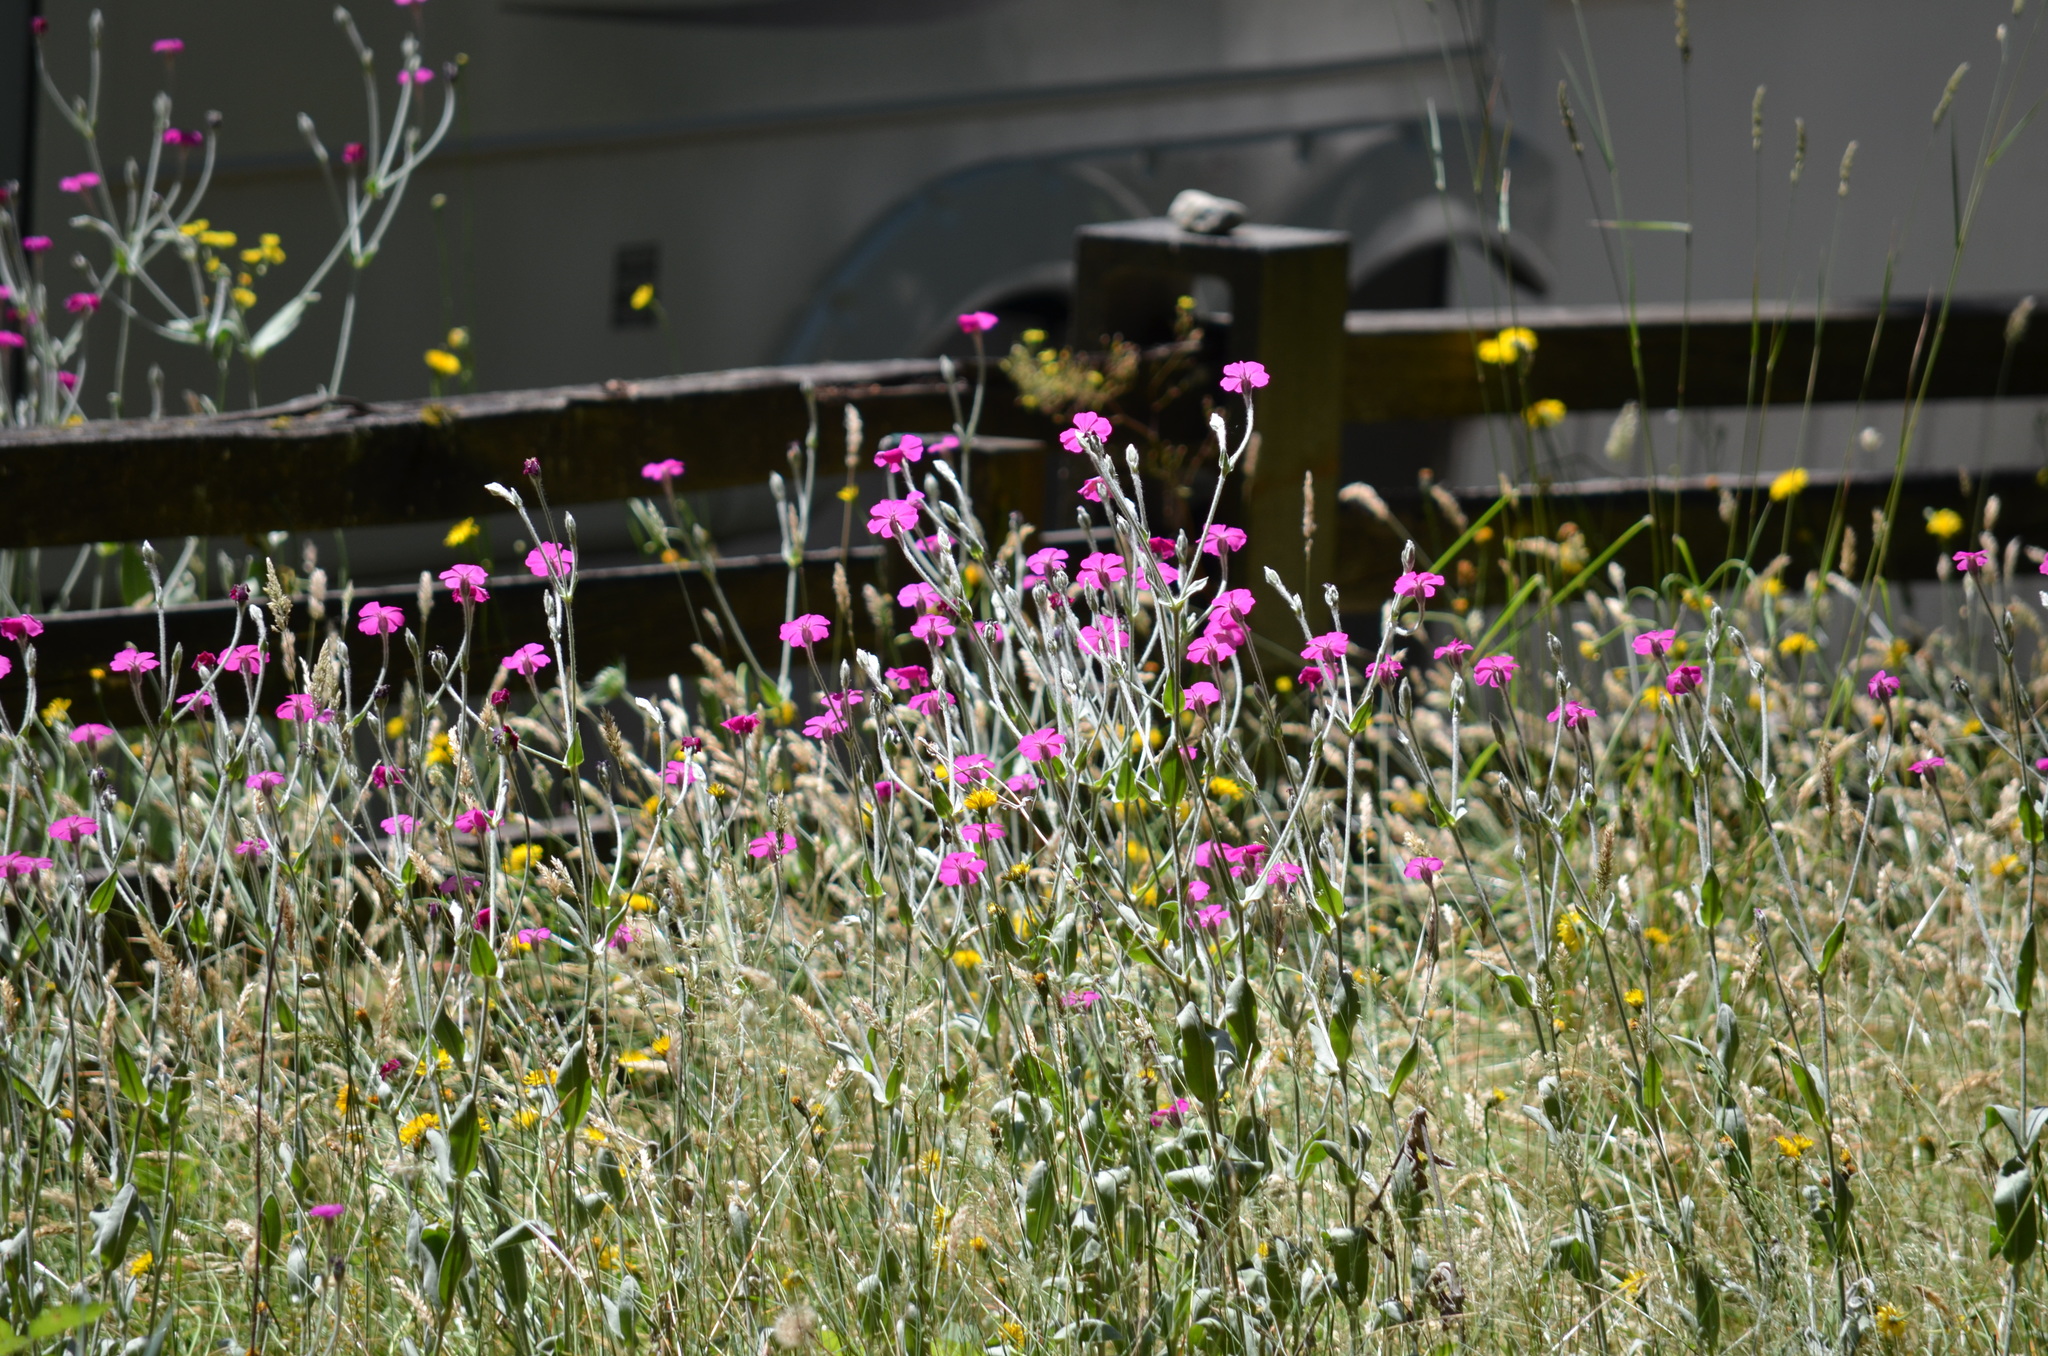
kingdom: Plantae
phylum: Tracheophyta
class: Magnoliopsida
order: Caryophyllales
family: Caryophyllaceae
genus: Silene
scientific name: Silene coronaria
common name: Rose campion
